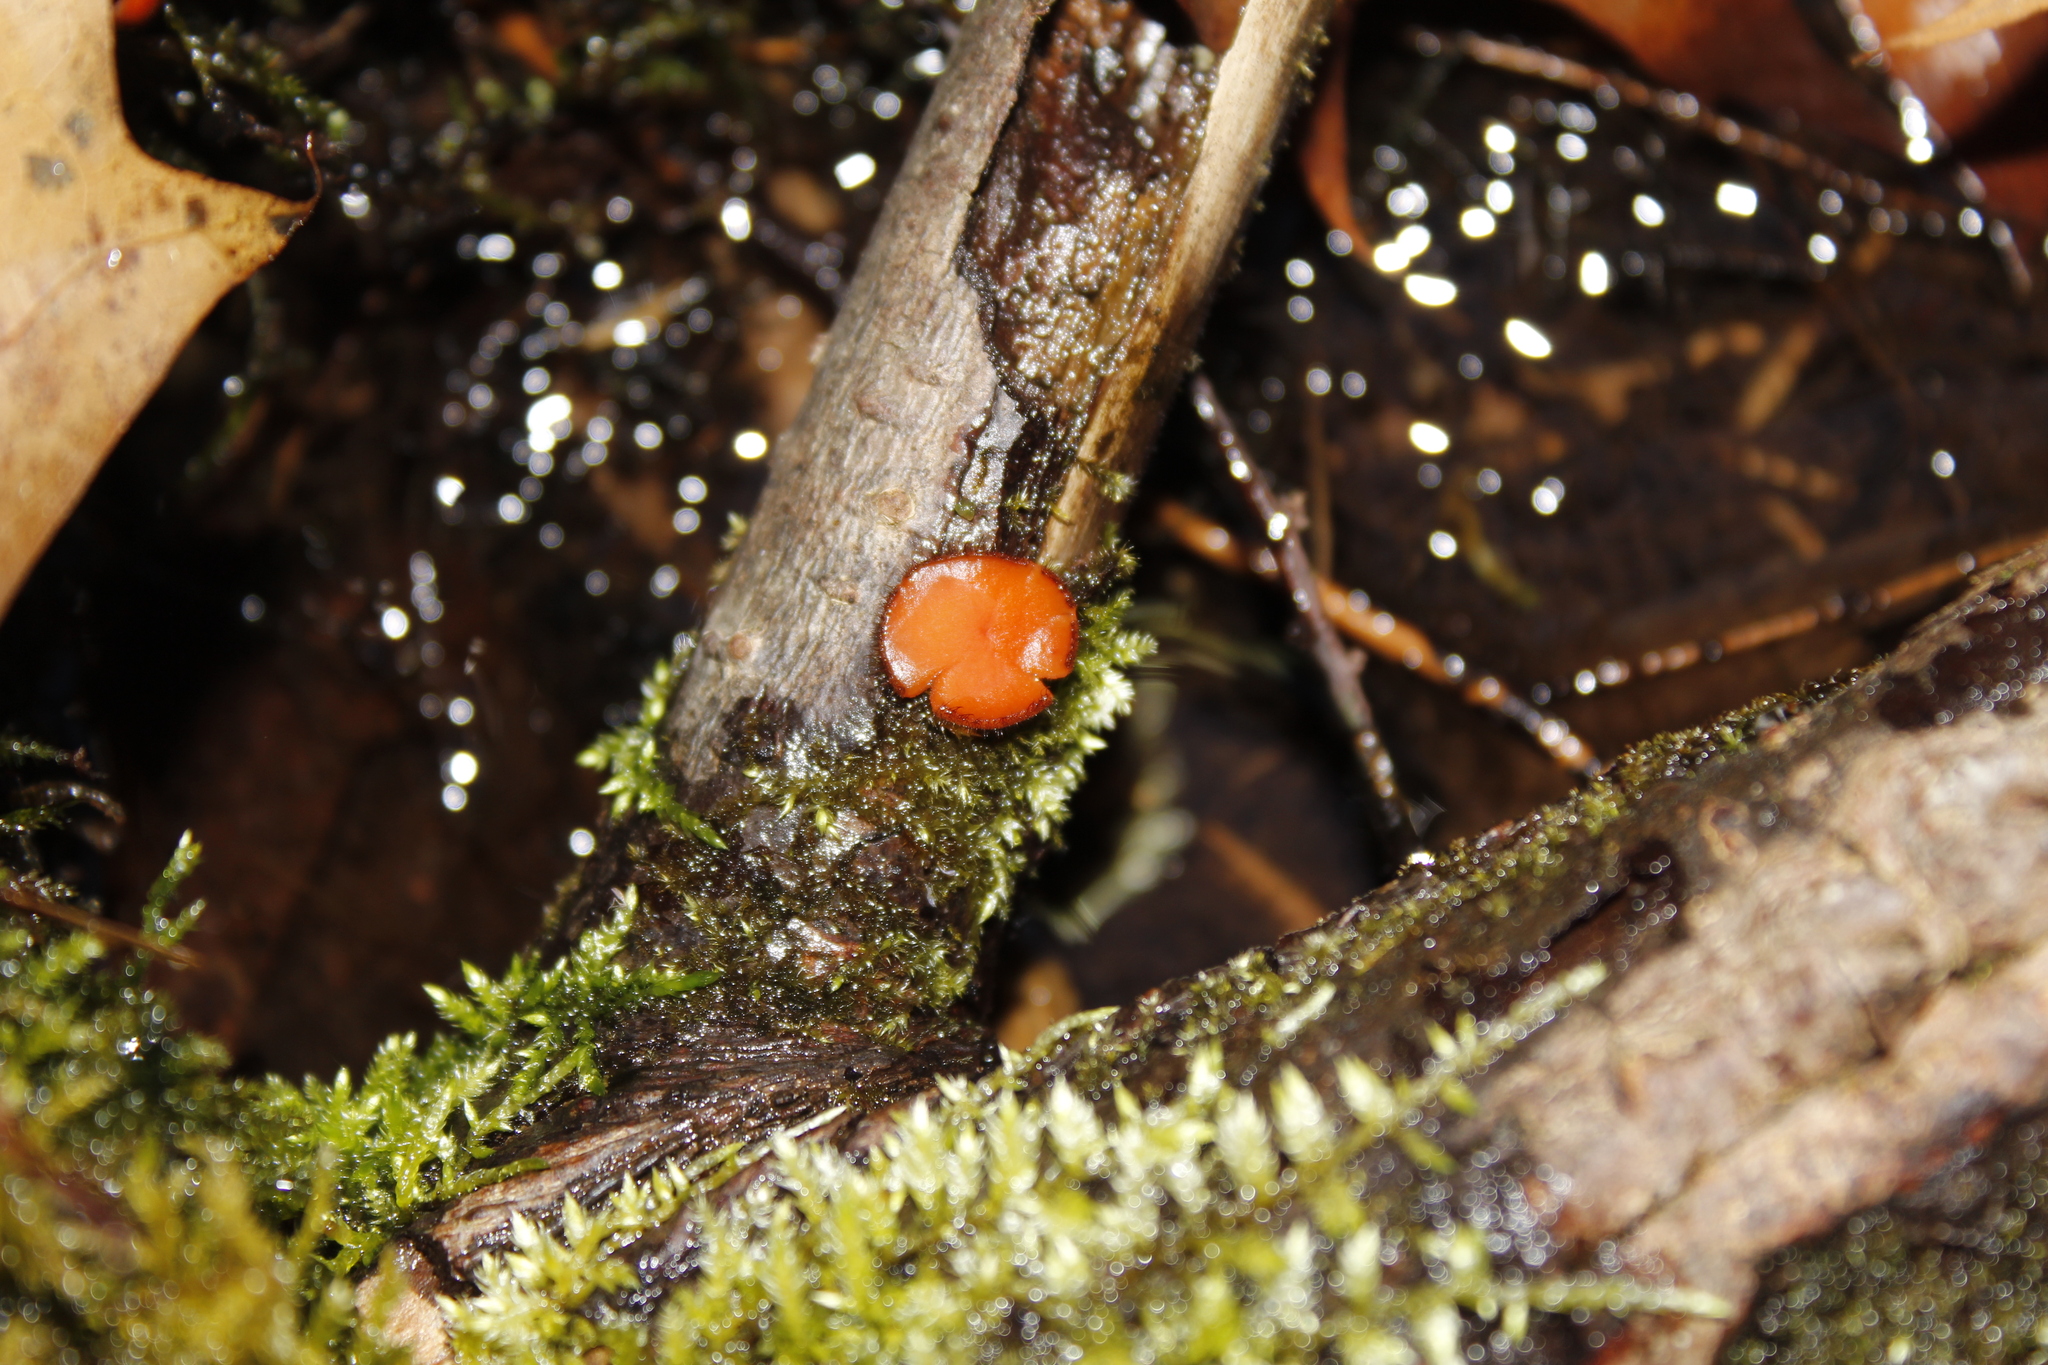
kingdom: Fungi
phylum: Ascomycota
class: Pezizomycetes
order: Pezizales
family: Pyronemataceae
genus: Scutellinia
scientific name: Scutellinia
